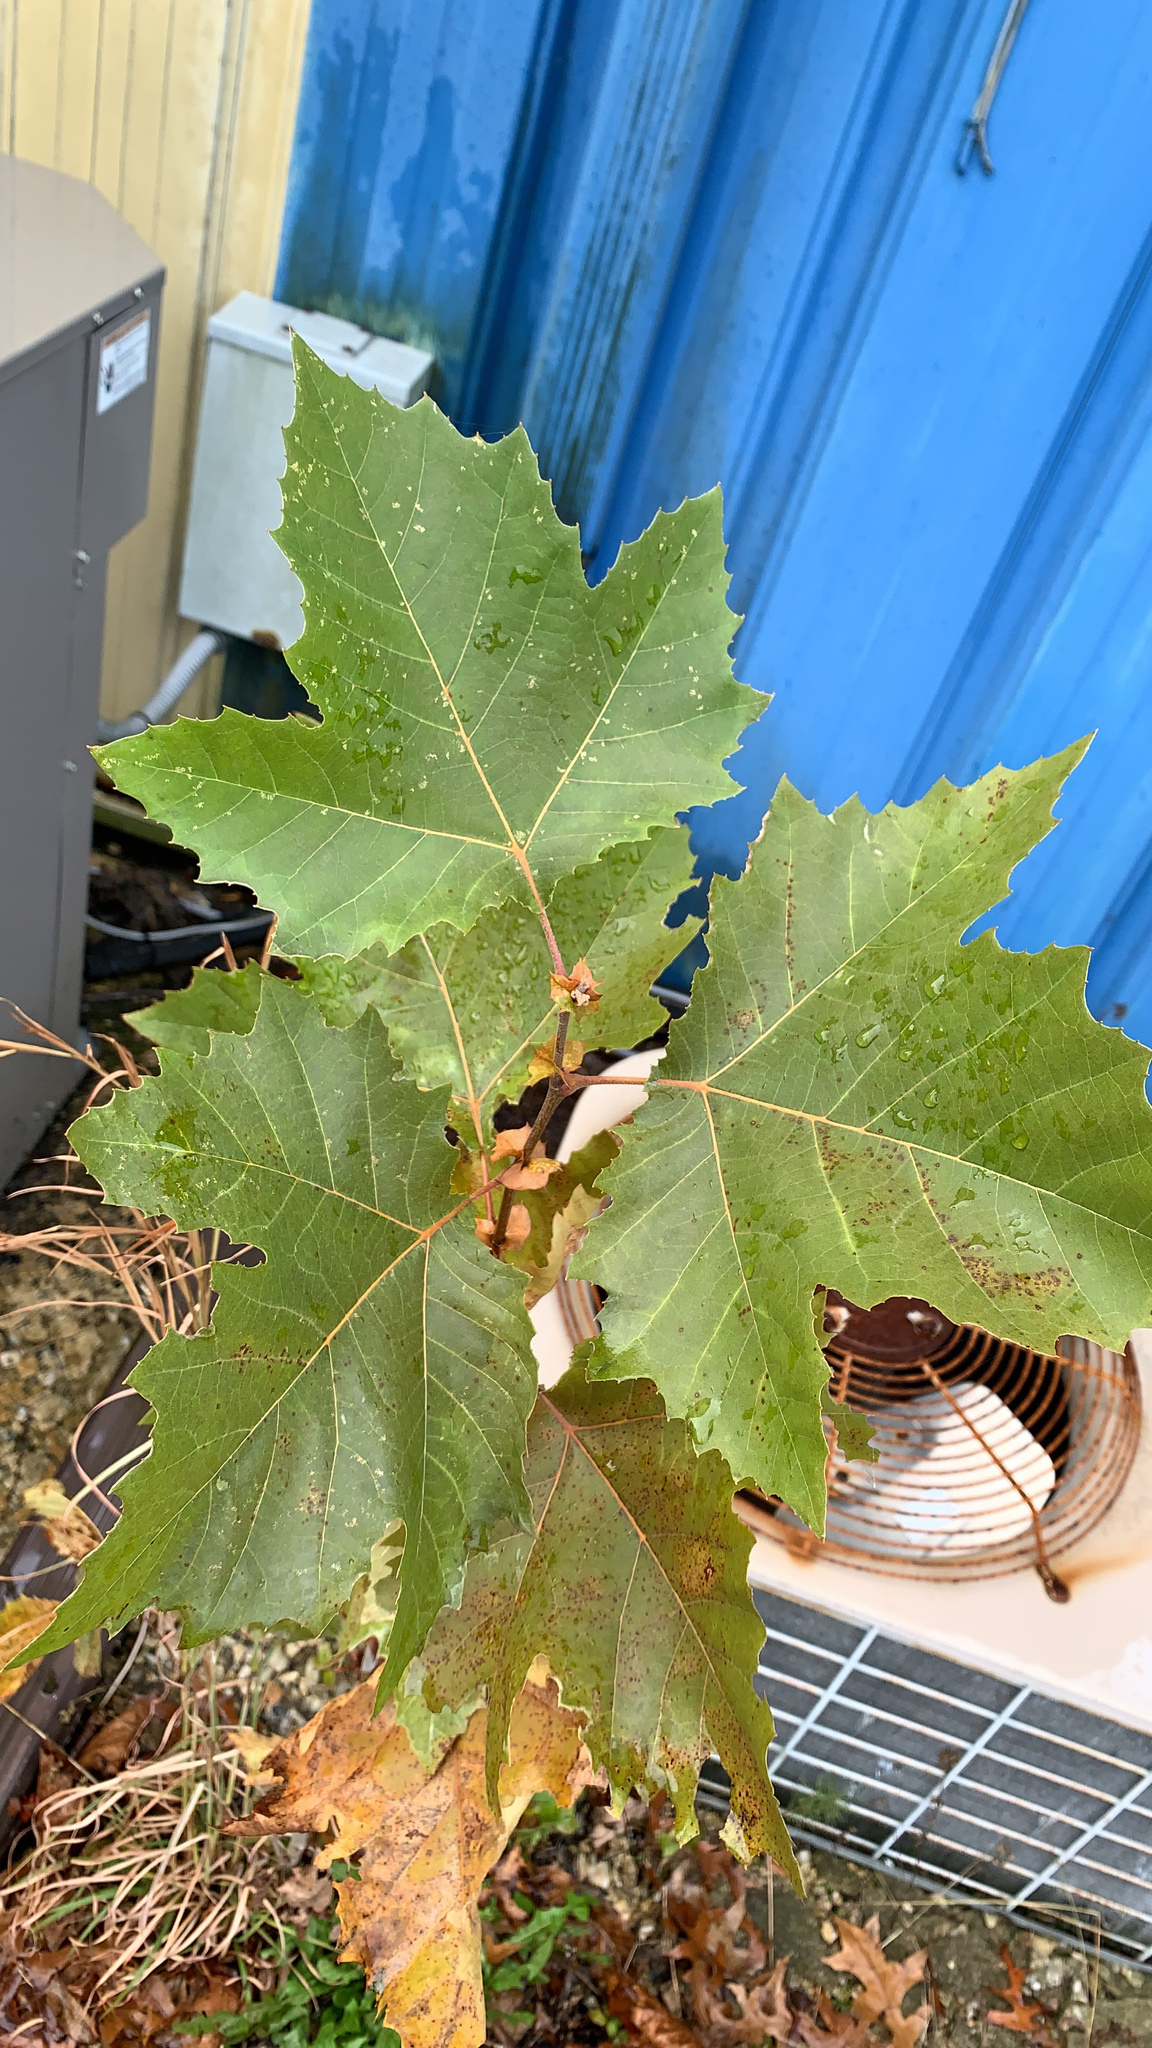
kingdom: Plantae
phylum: Tracheophyta
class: Magnoliopsida
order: Proteales
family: Platanaceae
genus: Platanus
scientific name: Platanus occidentalis
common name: American sycamore
